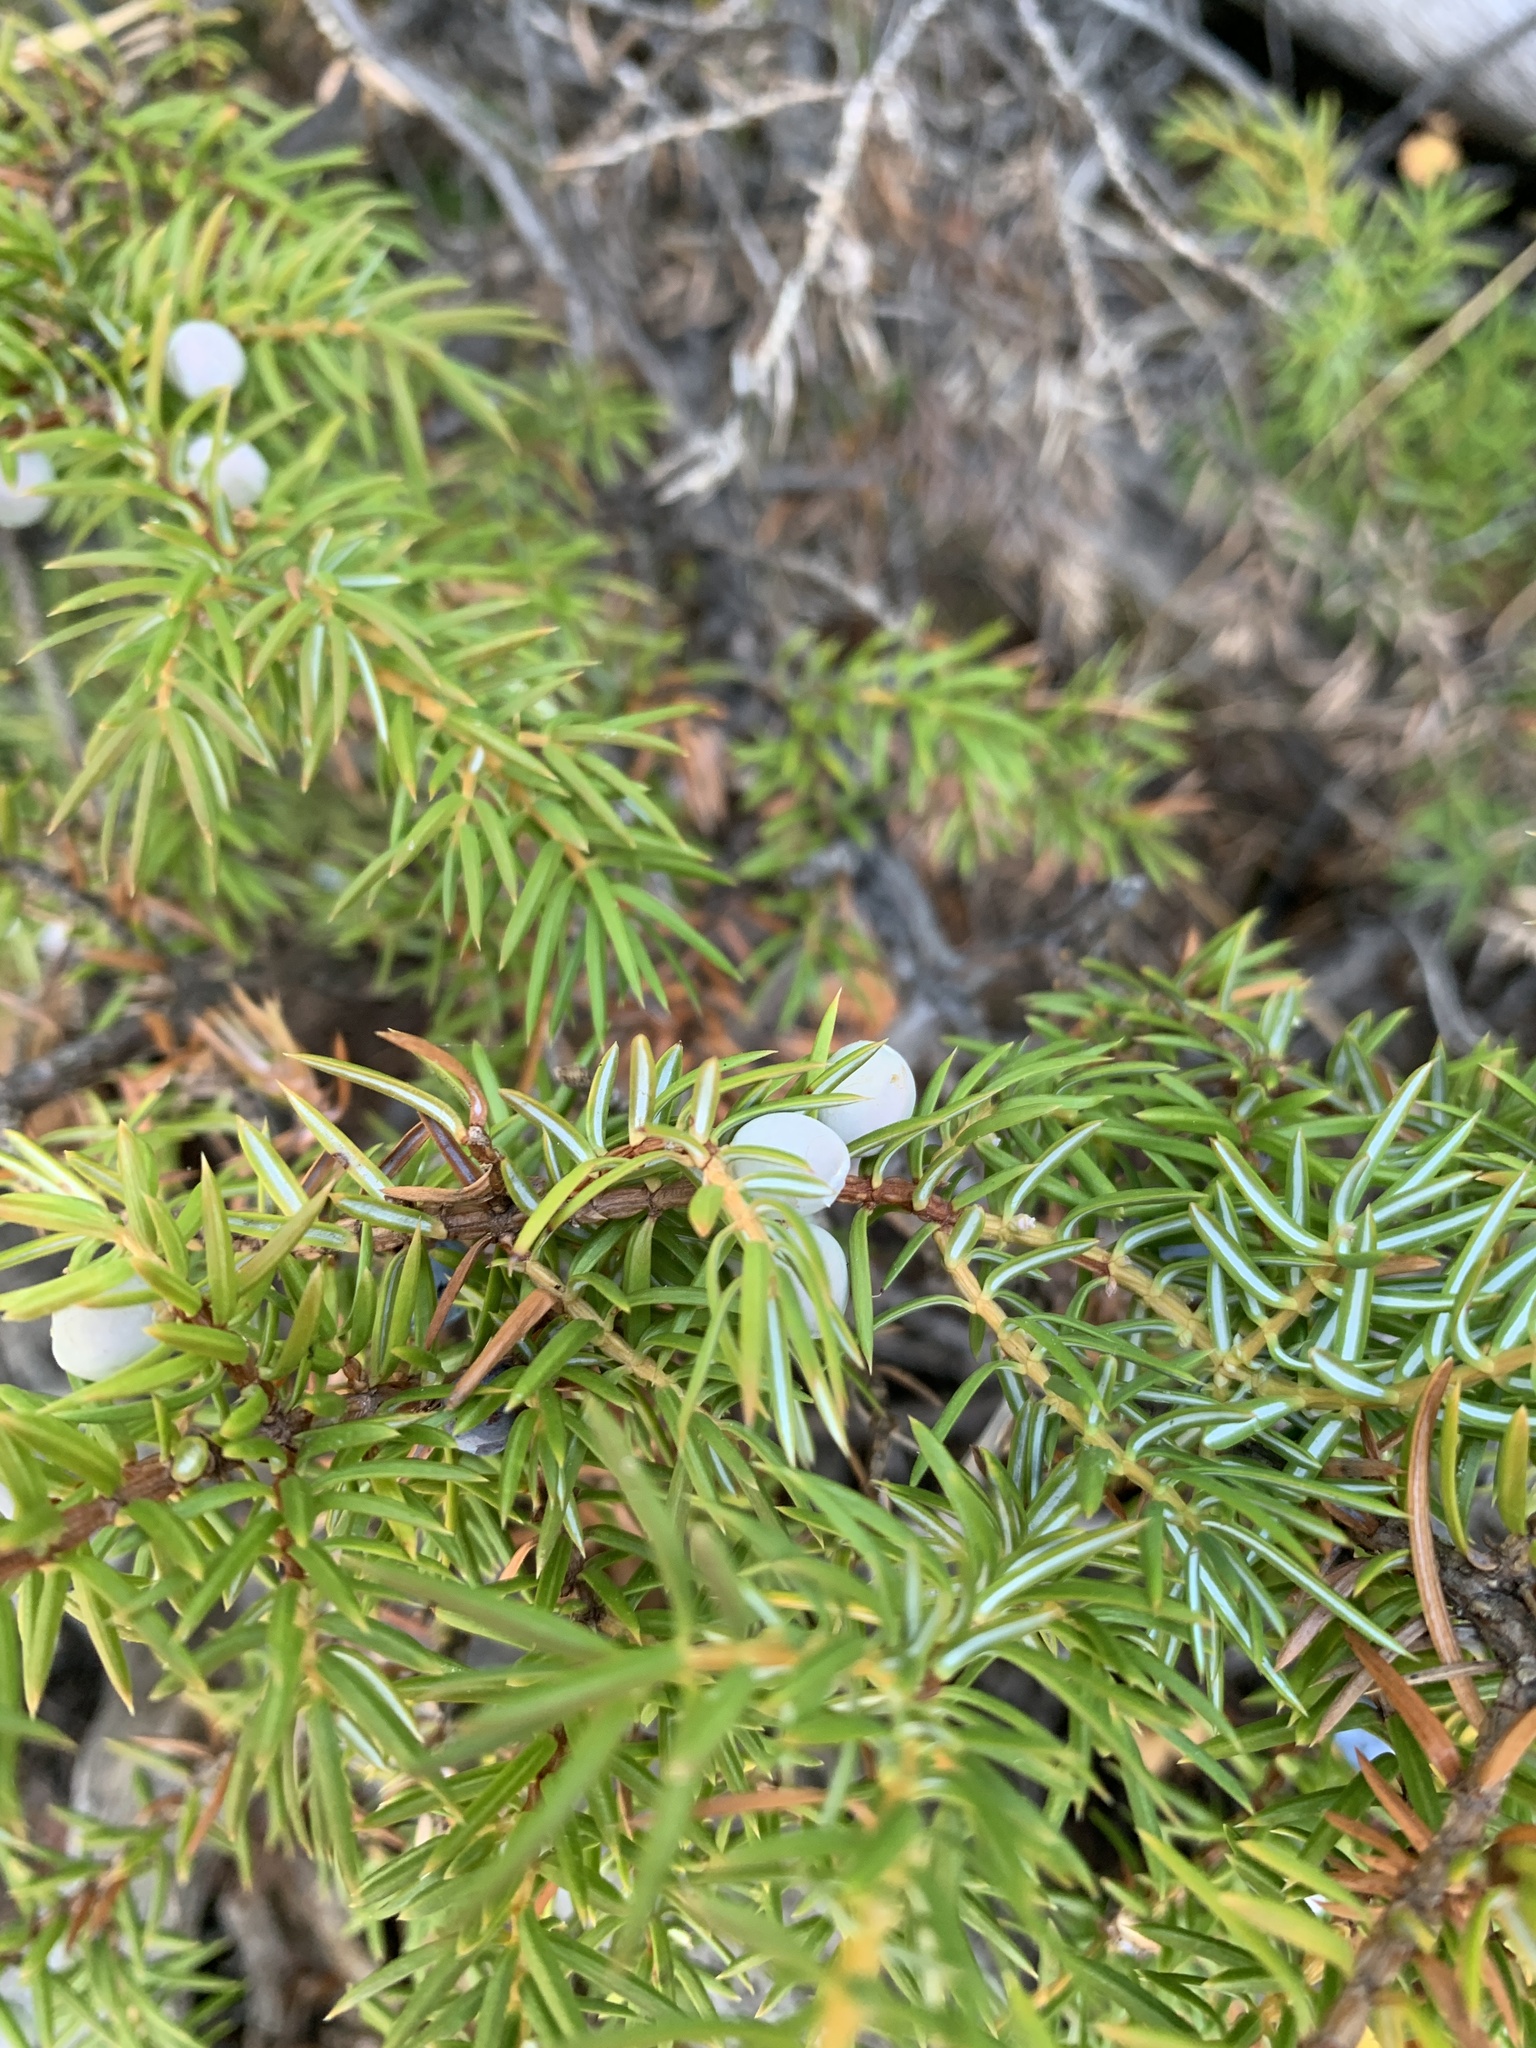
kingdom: Plantae
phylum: Tracheophyta
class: Pinopsida
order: Pinales
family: Cupressaceae
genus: Juniperus
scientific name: Juniperus communis
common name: Common juniper
